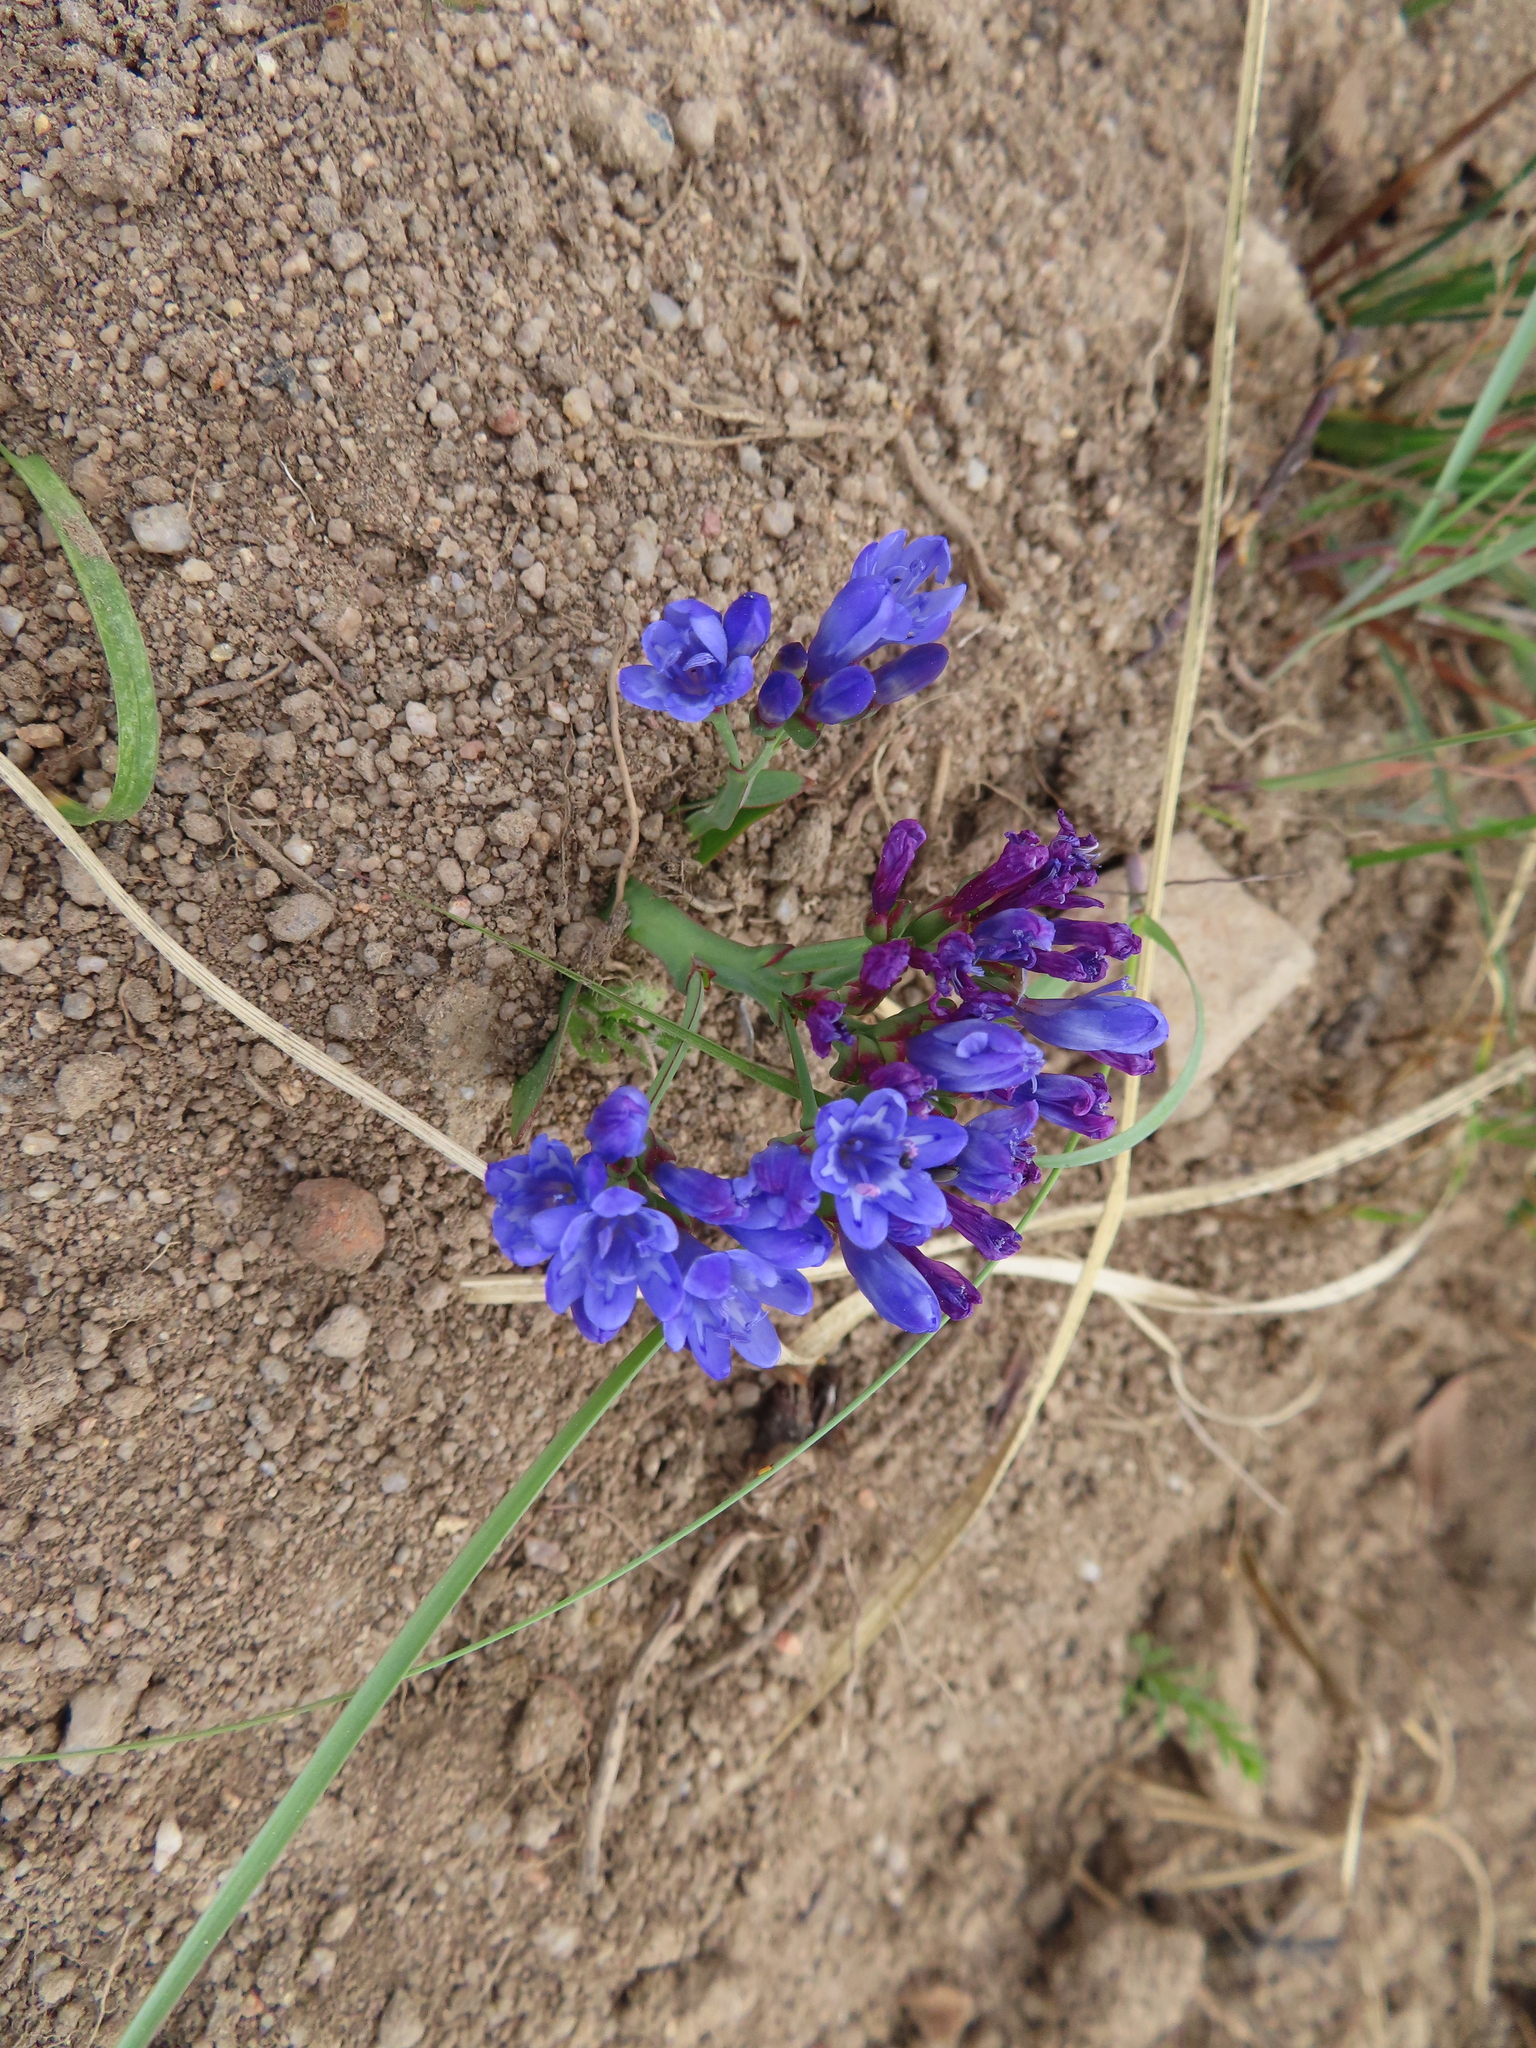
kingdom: Plantae
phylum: Tracheophyta
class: Liliopsida
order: Asparagales
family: Iridaceae
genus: Codonorhiza
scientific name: Codonorhiza corymbosa
